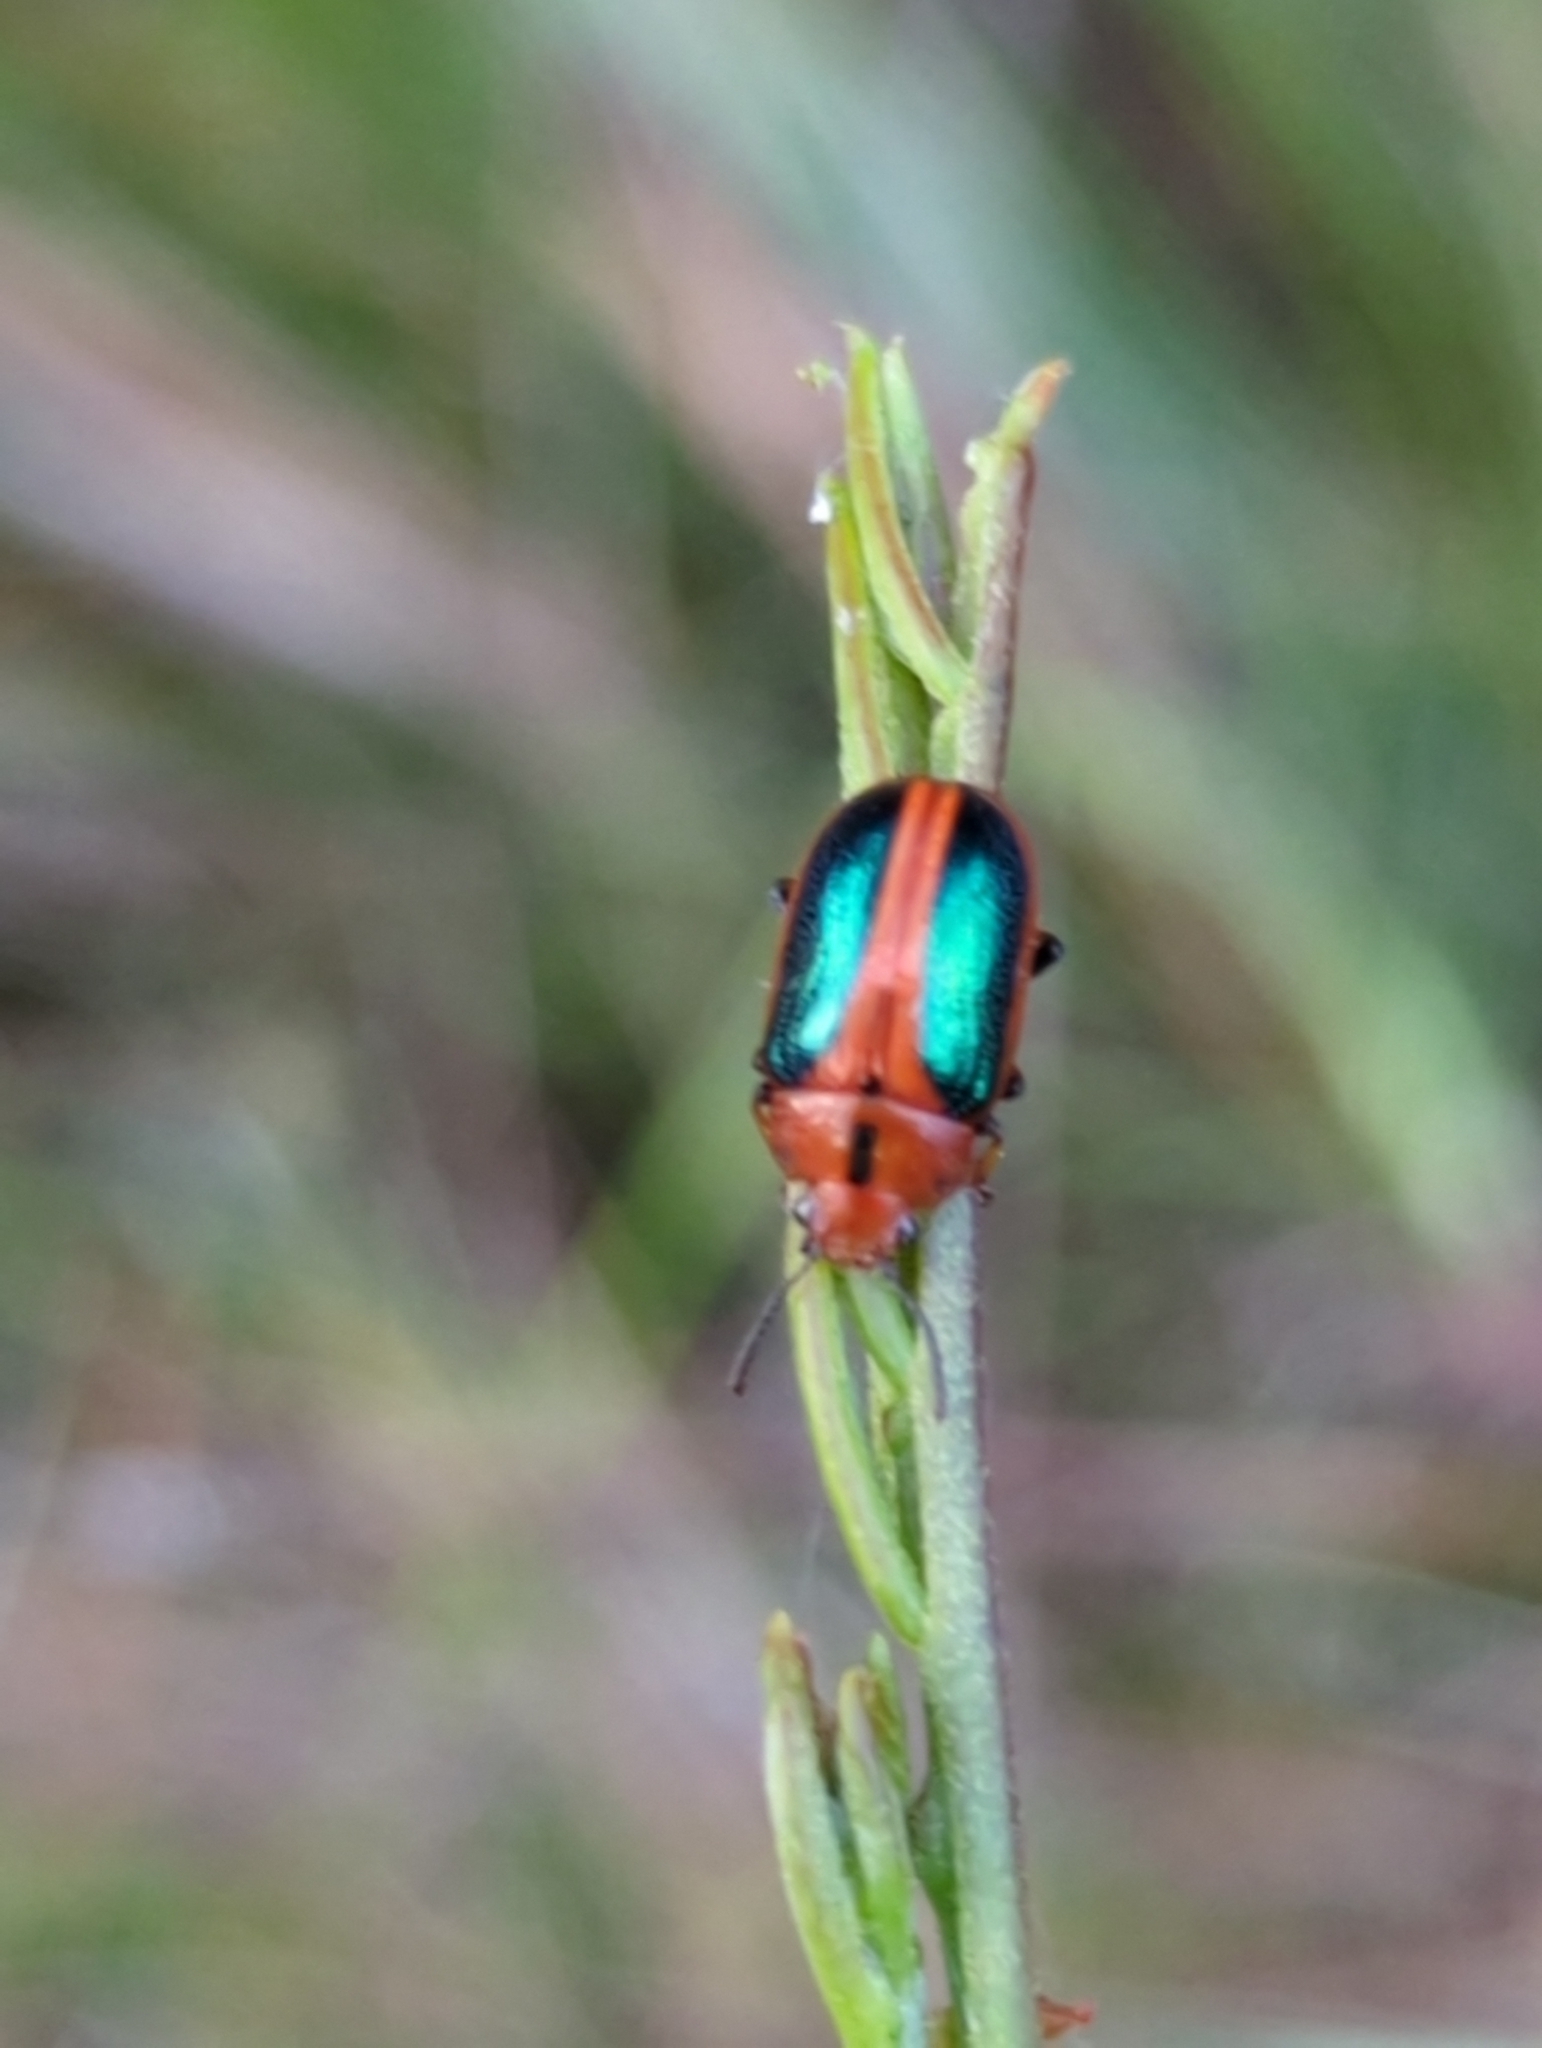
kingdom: Animalia
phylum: Arthropoda
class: Insecta
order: Coleoptera
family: Chrysomelidae
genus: Calomela
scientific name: Calomela
